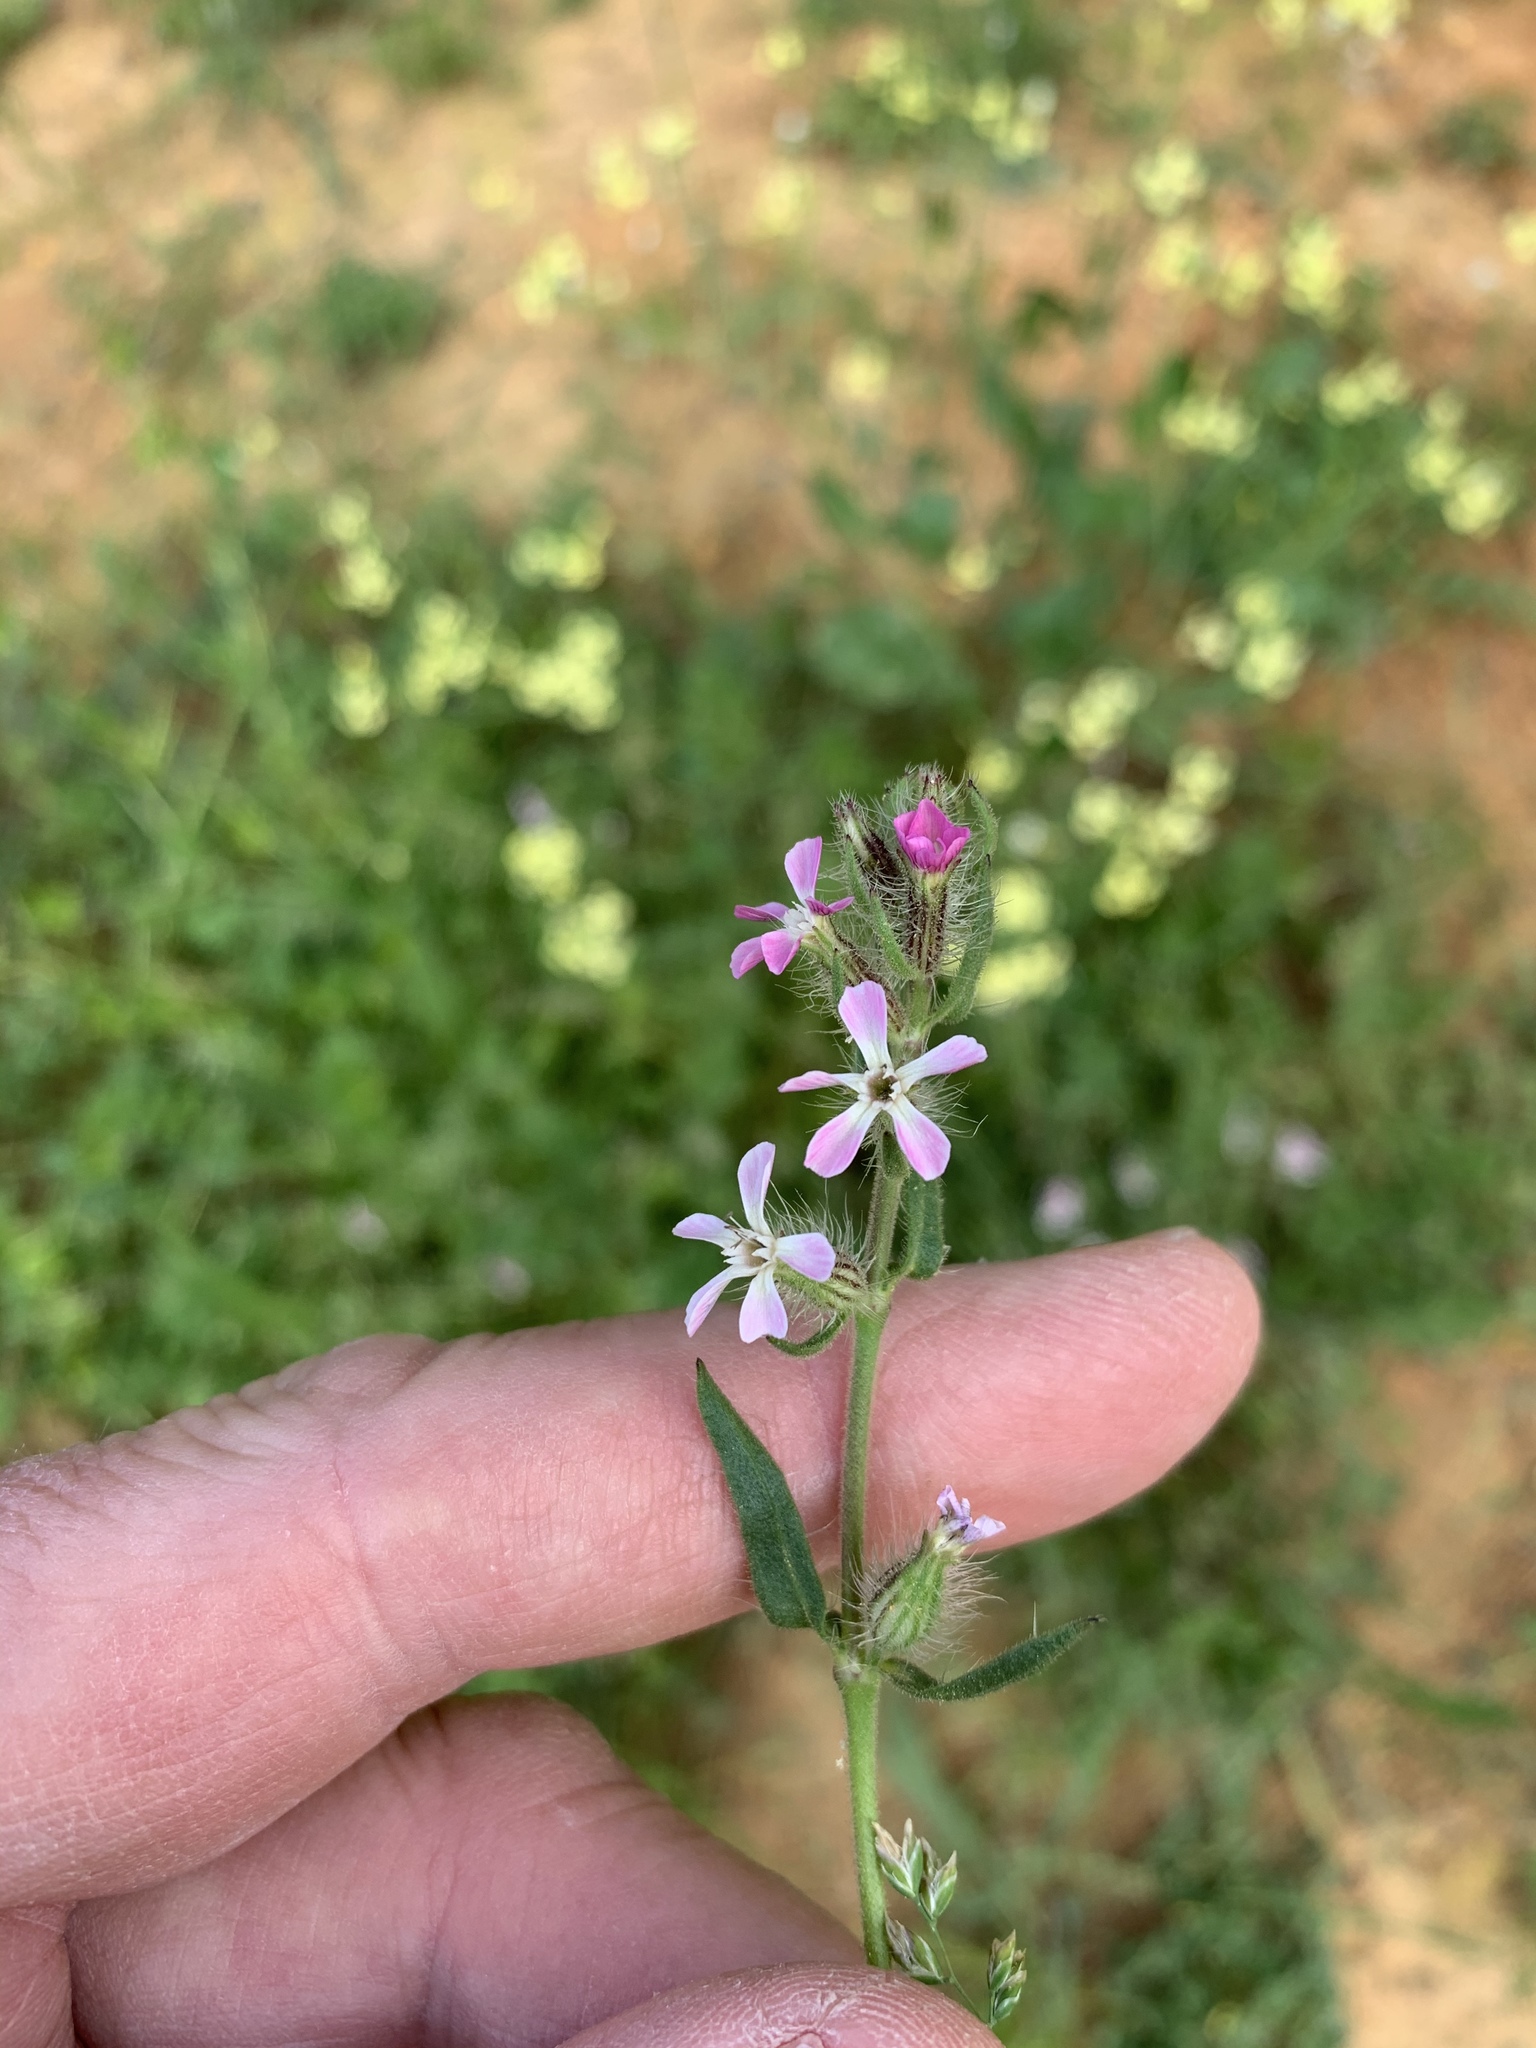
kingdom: Plantae
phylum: Tracheophyta
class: Magnoliopsida
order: Caryophyllales
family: Caryophyllaceae
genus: Silene
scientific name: Silene gallica
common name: Small-flowered catchfly
